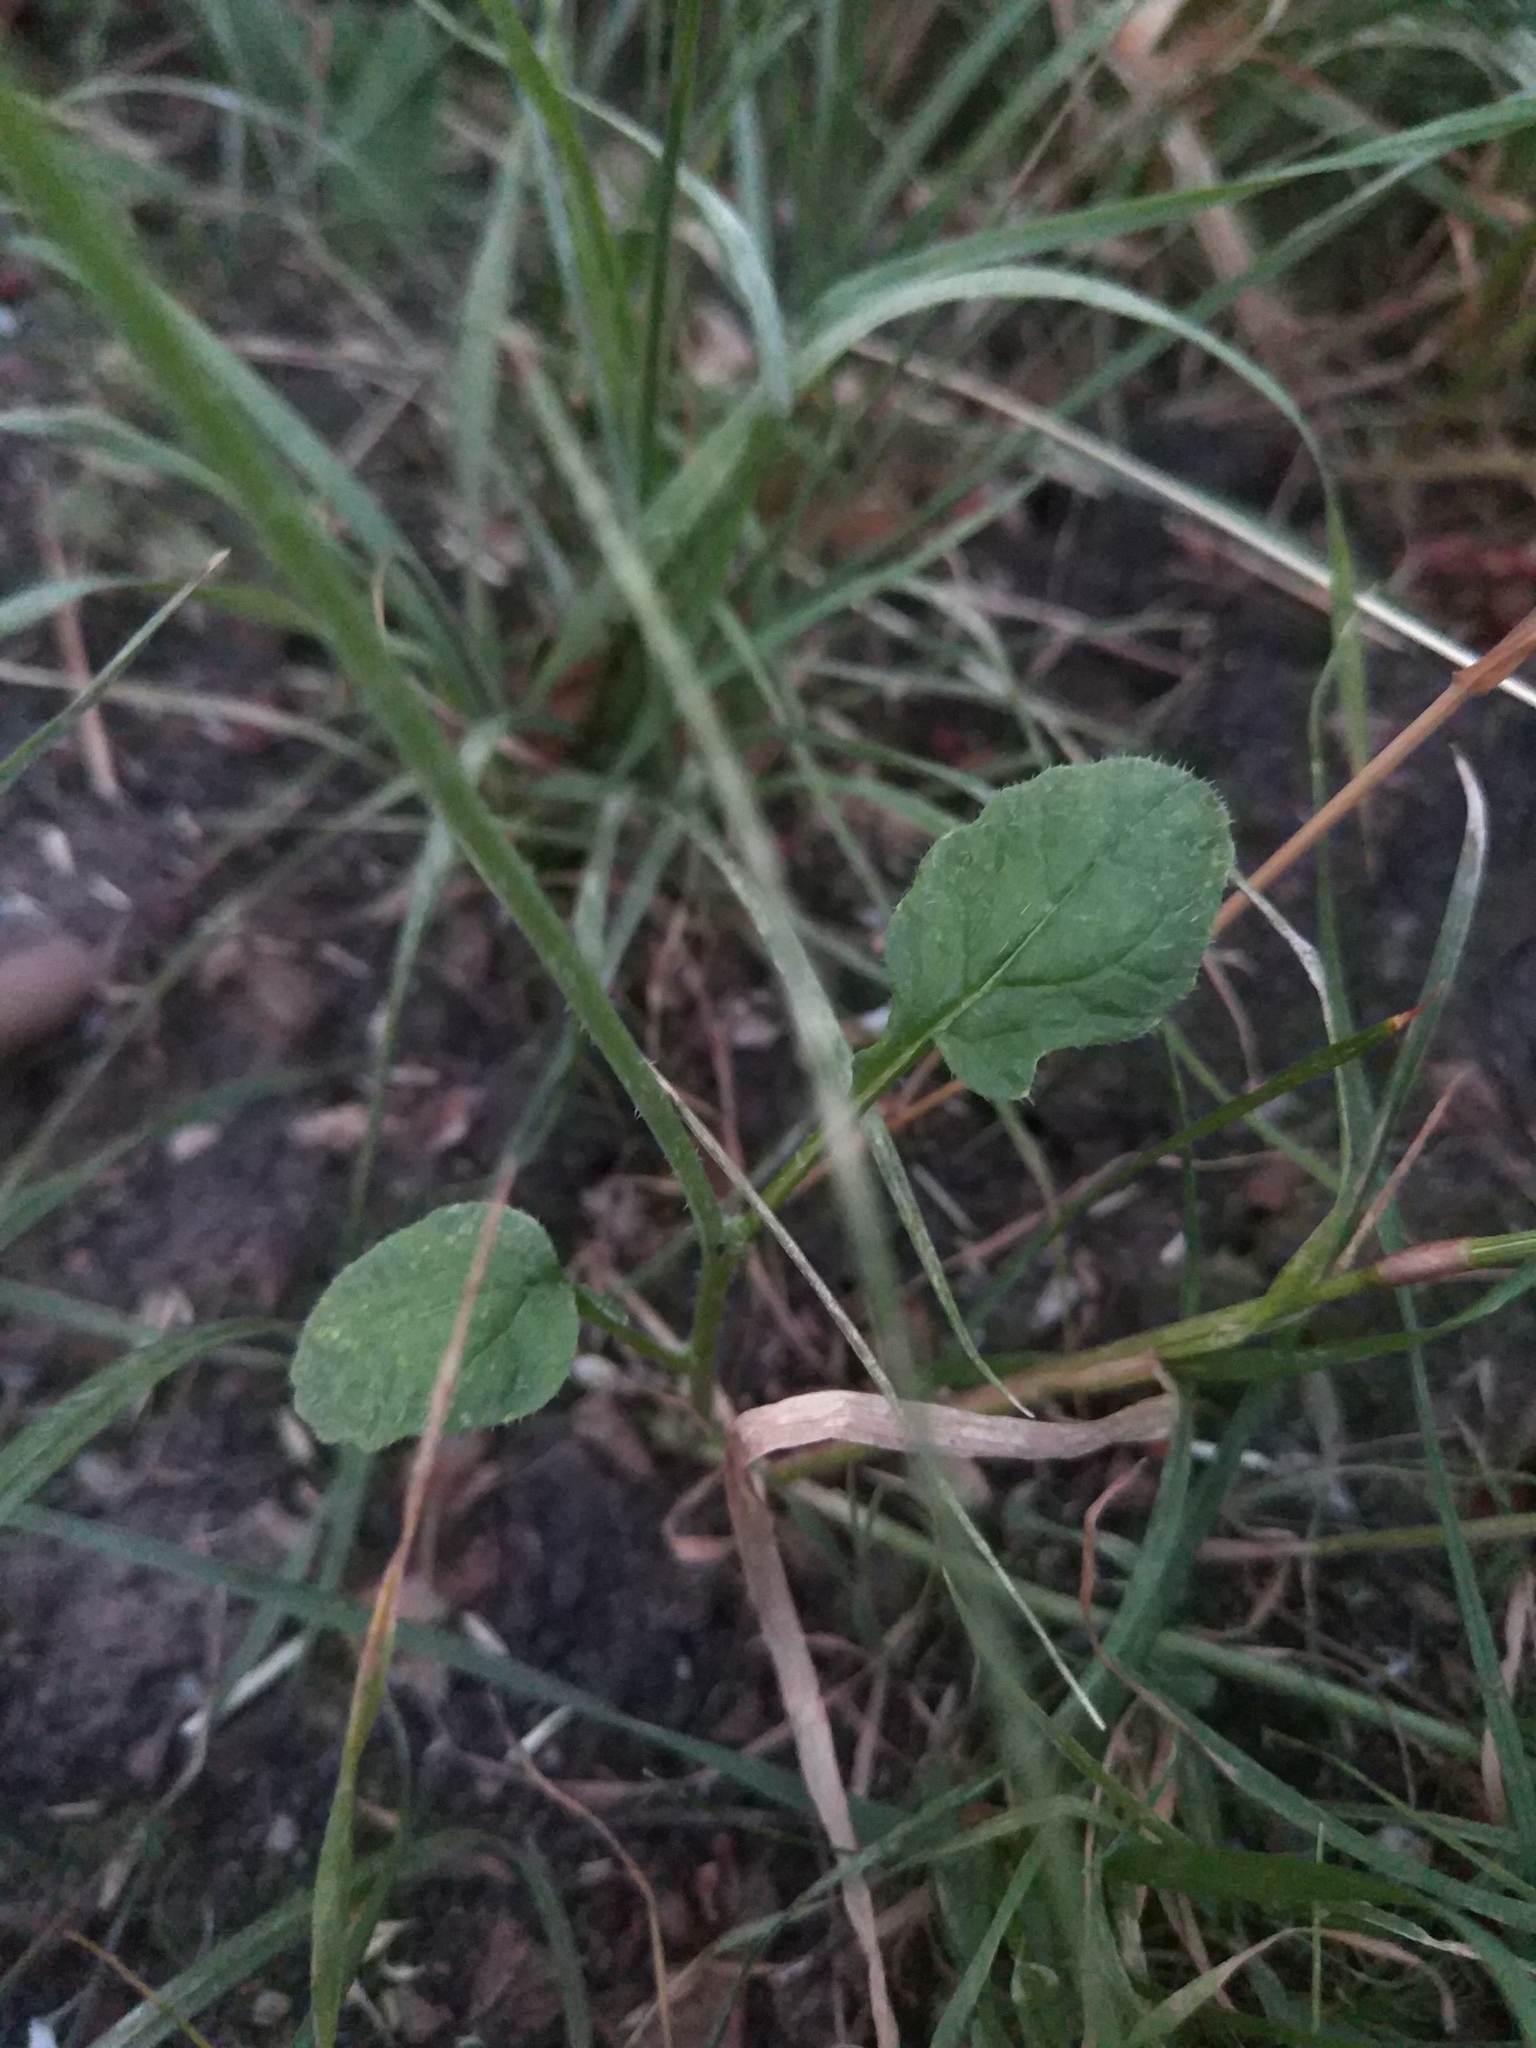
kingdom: Plantae
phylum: Tracheophyta
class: Magnoliopsida
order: Brassicales
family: Brassicaceae
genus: Raphanus
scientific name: Raphanus raphanistrum
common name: Wild radish
